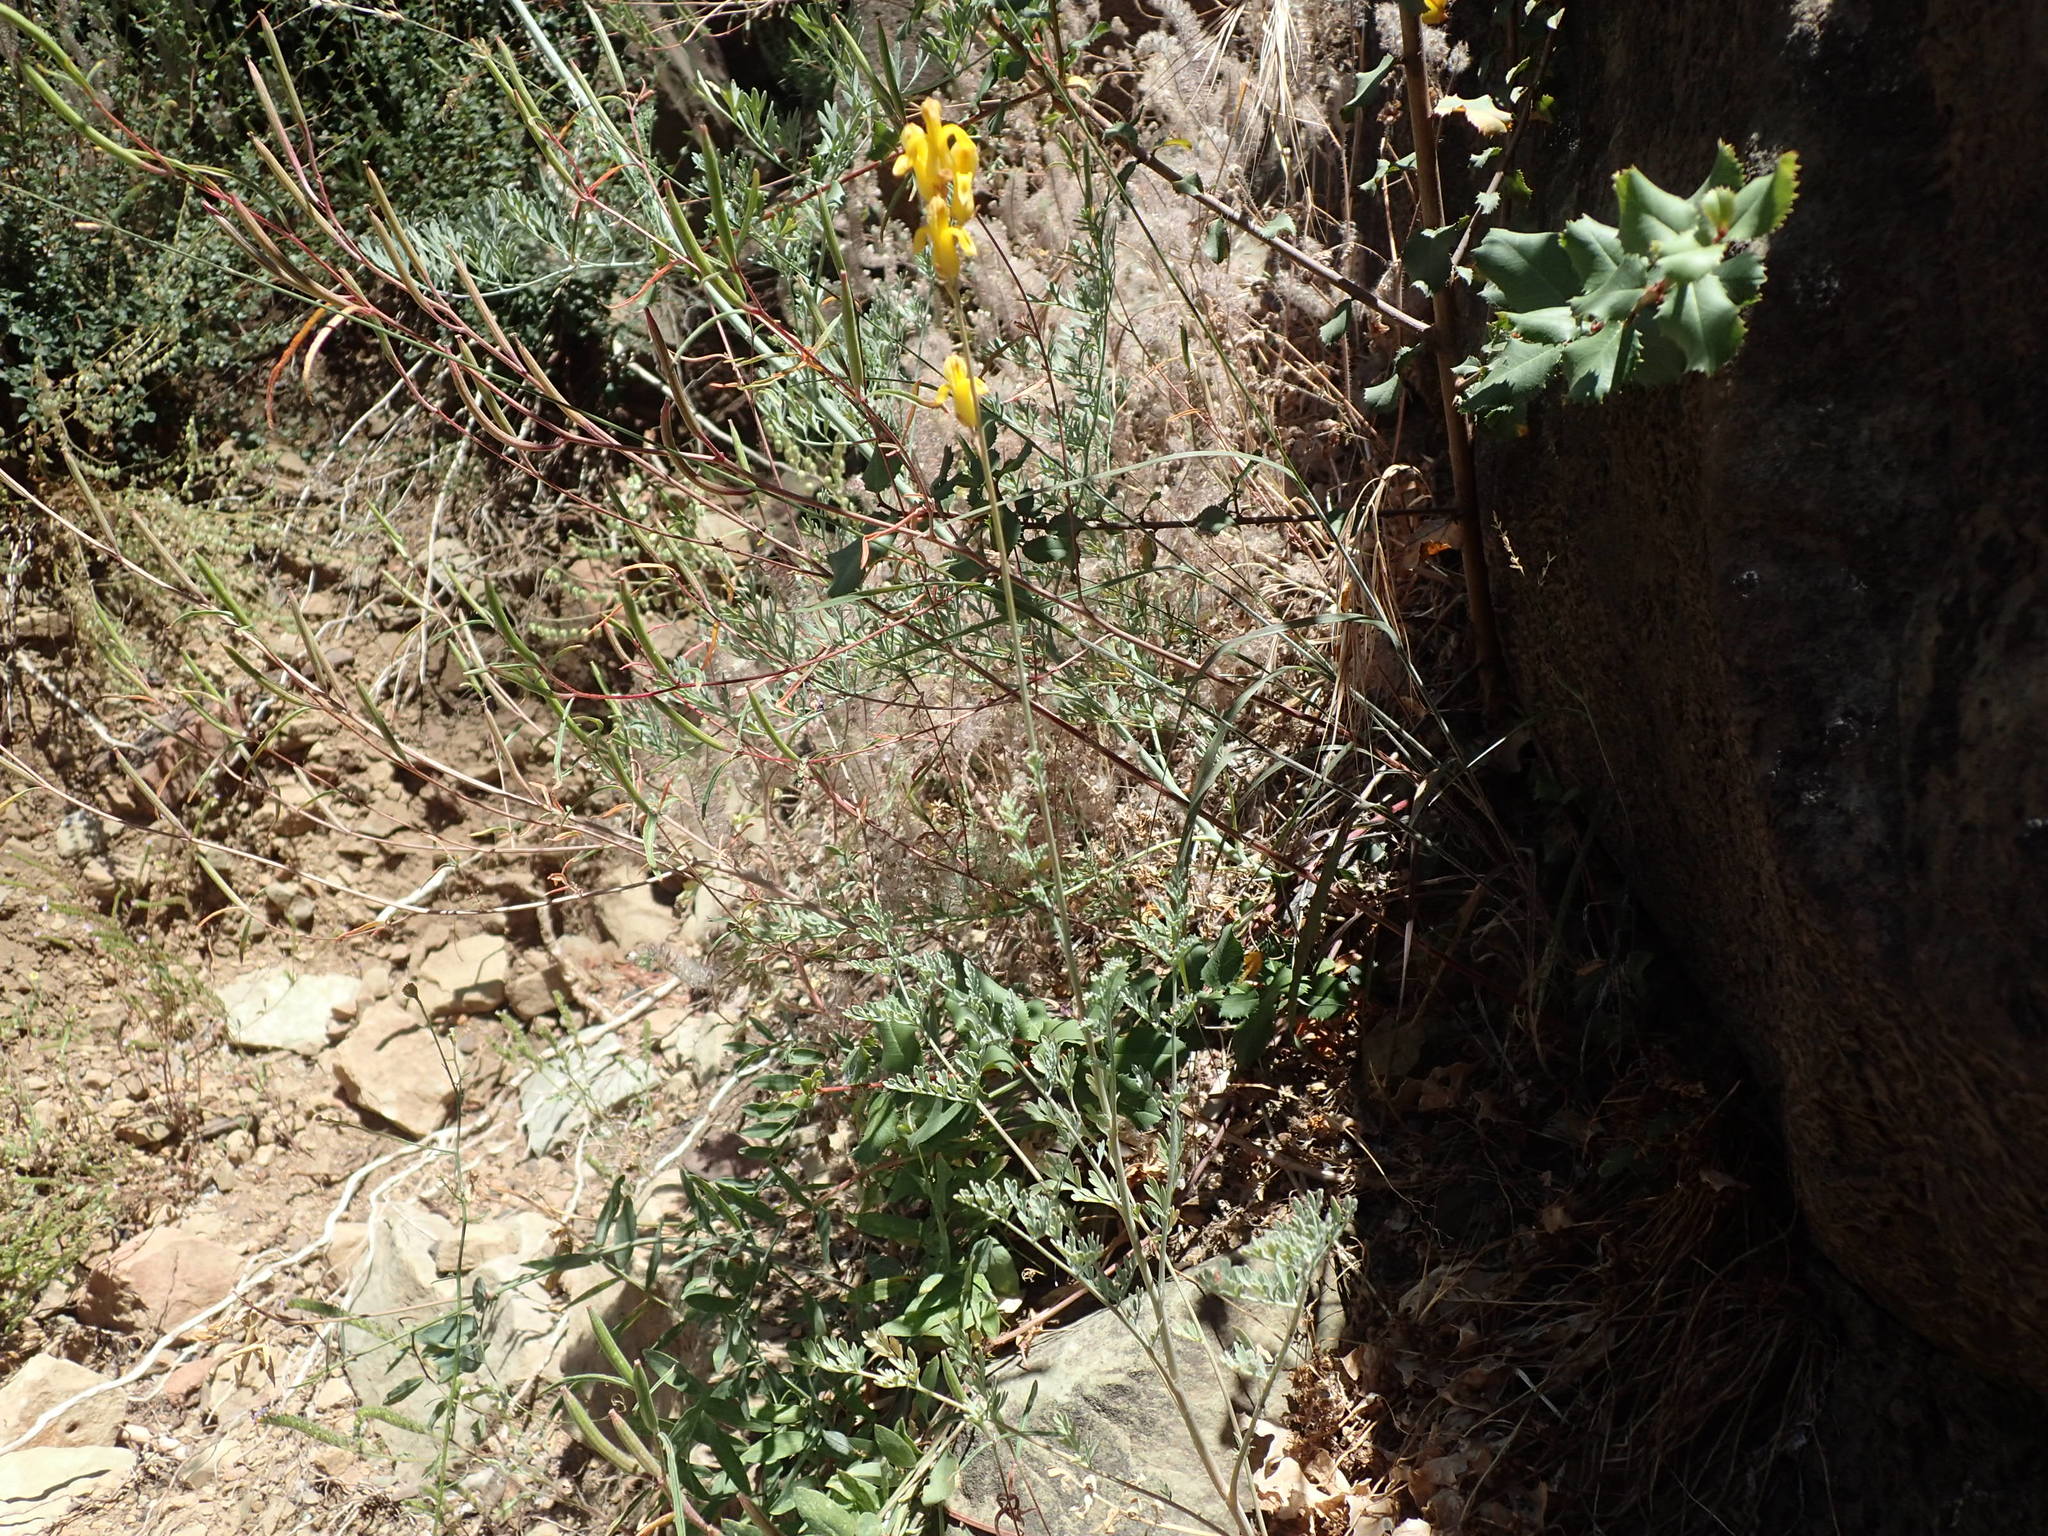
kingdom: Plantae
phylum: Tracheophyta
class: Magnoliopsida
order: Ranunculales
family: Papaveraceae
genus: Ehrendorferia
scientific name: Ehrendorferia chrysantha
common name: Golden eardrops
